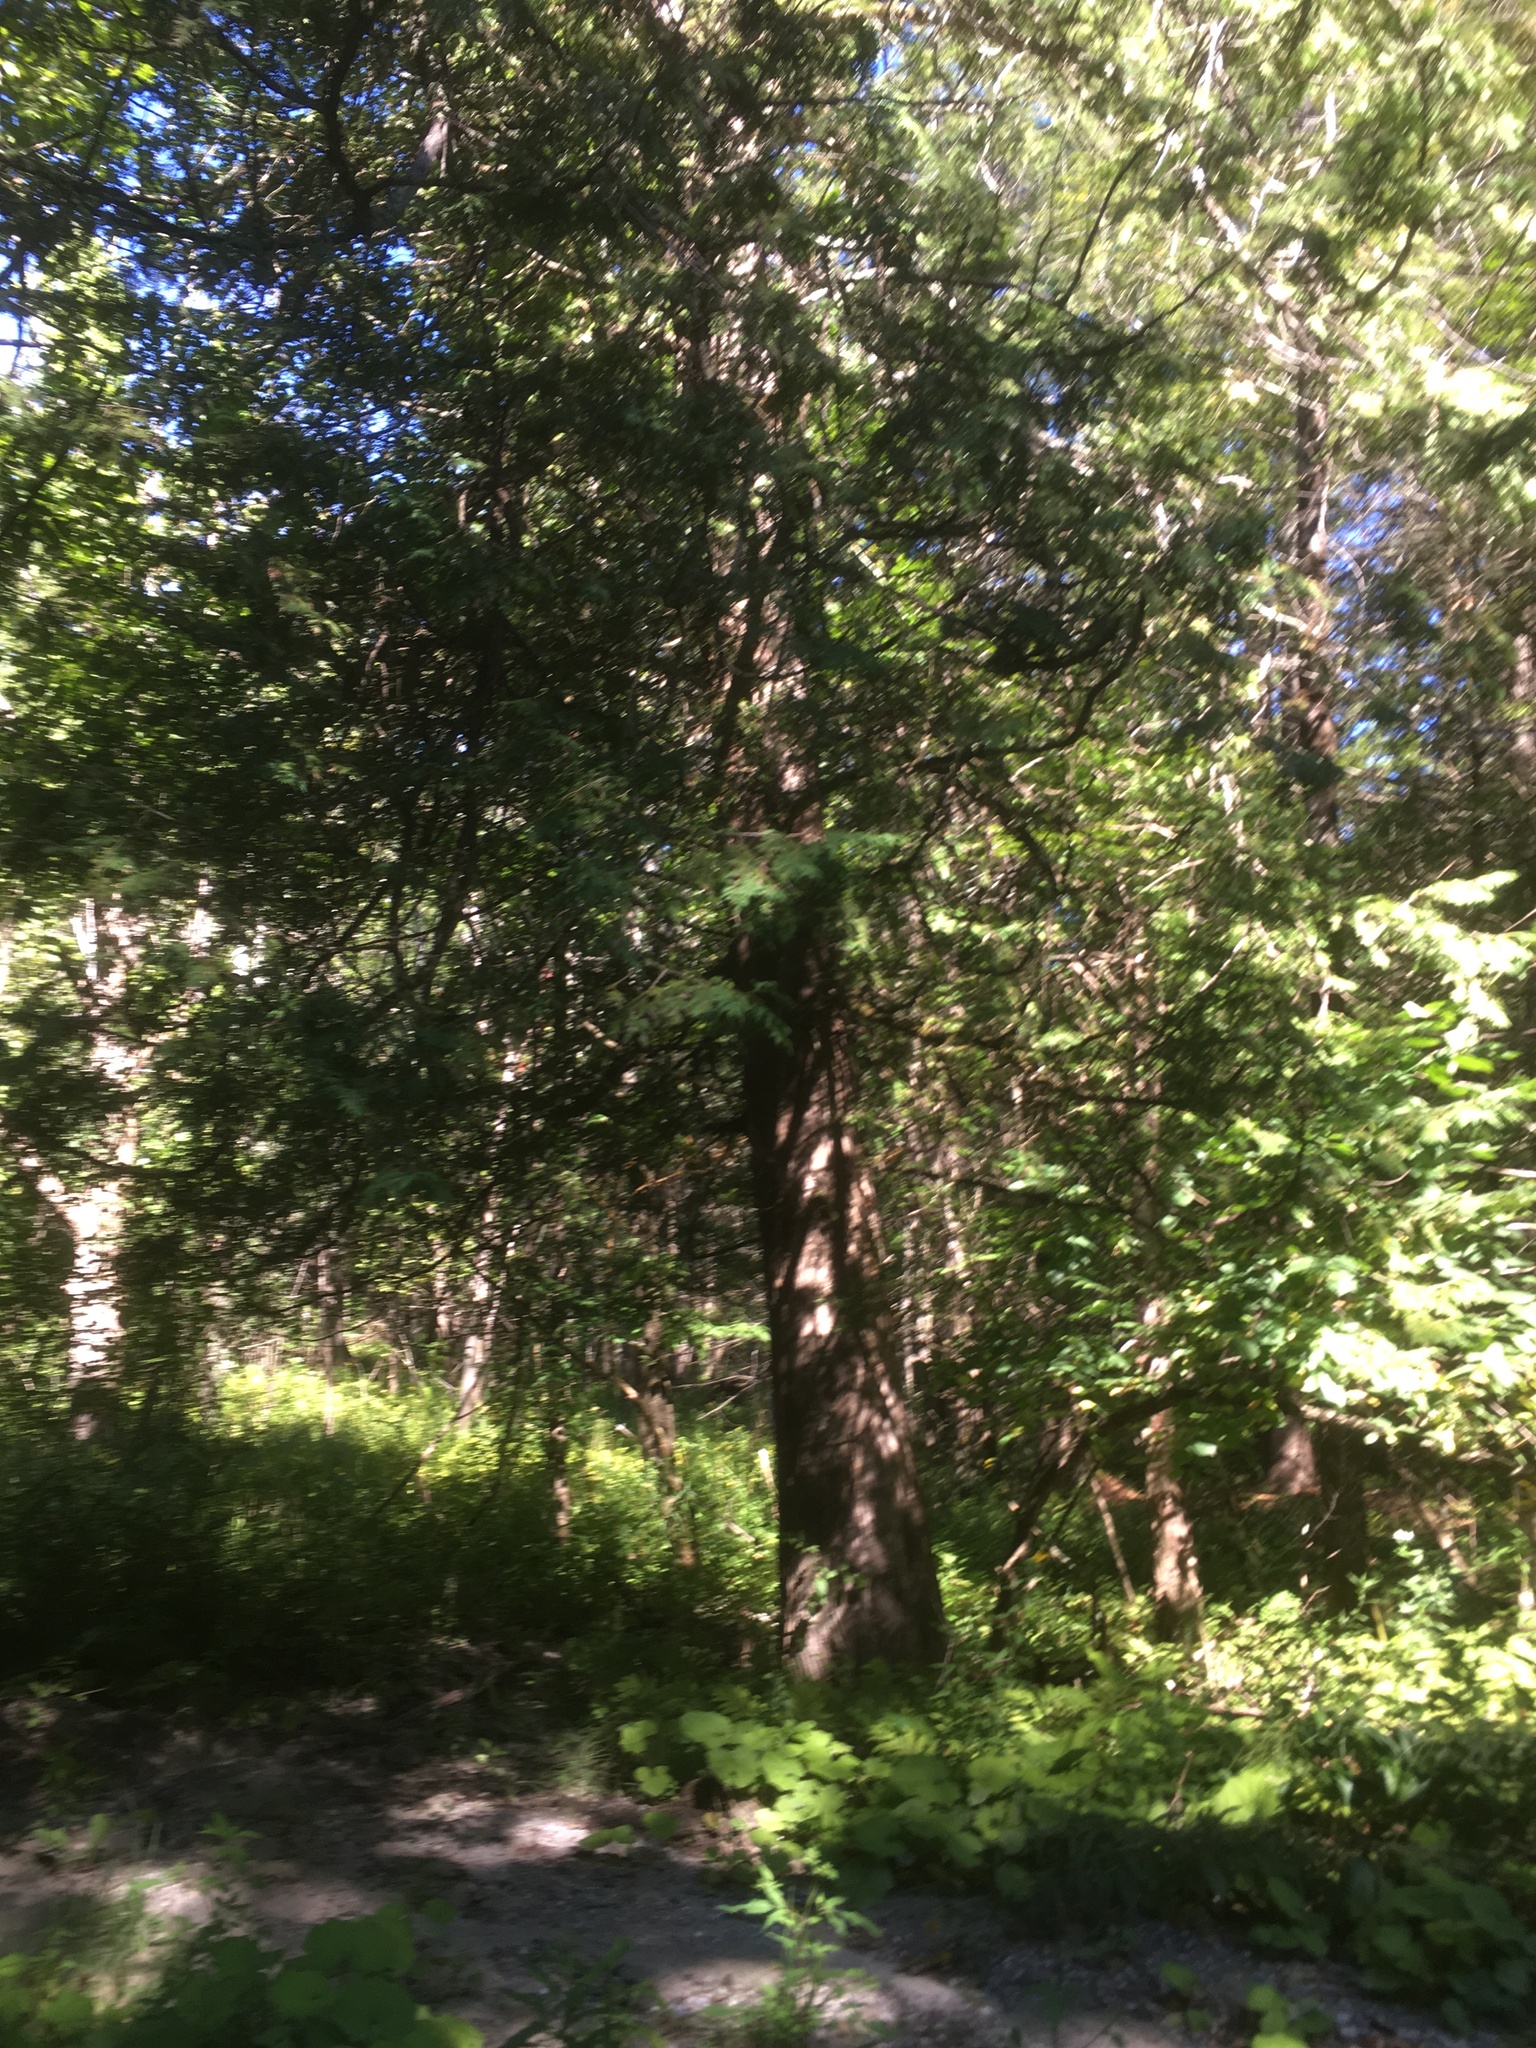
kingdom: Plantae
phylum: Tracheophyta
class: Pinopsida
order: Pinales
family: Cupressaceae
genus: Thuja
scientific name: Thuja occidentalis
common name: Northern white-cedar
